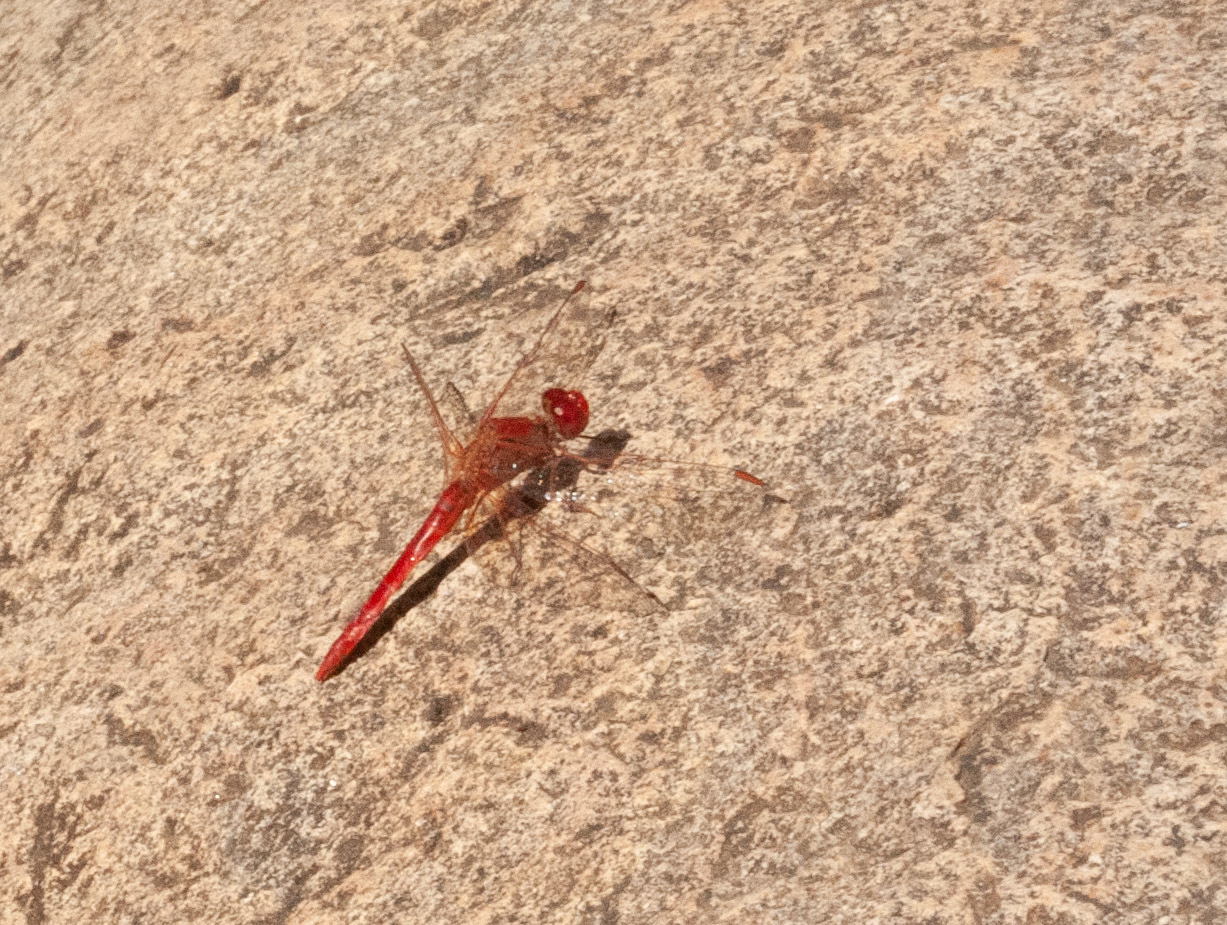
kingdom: Animalia
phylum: Arthropoda
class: Insecta
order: Odonata
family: Libellulidae
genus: Diplacodes
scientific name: Diplacodes haematodes
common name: Scarlet percher
